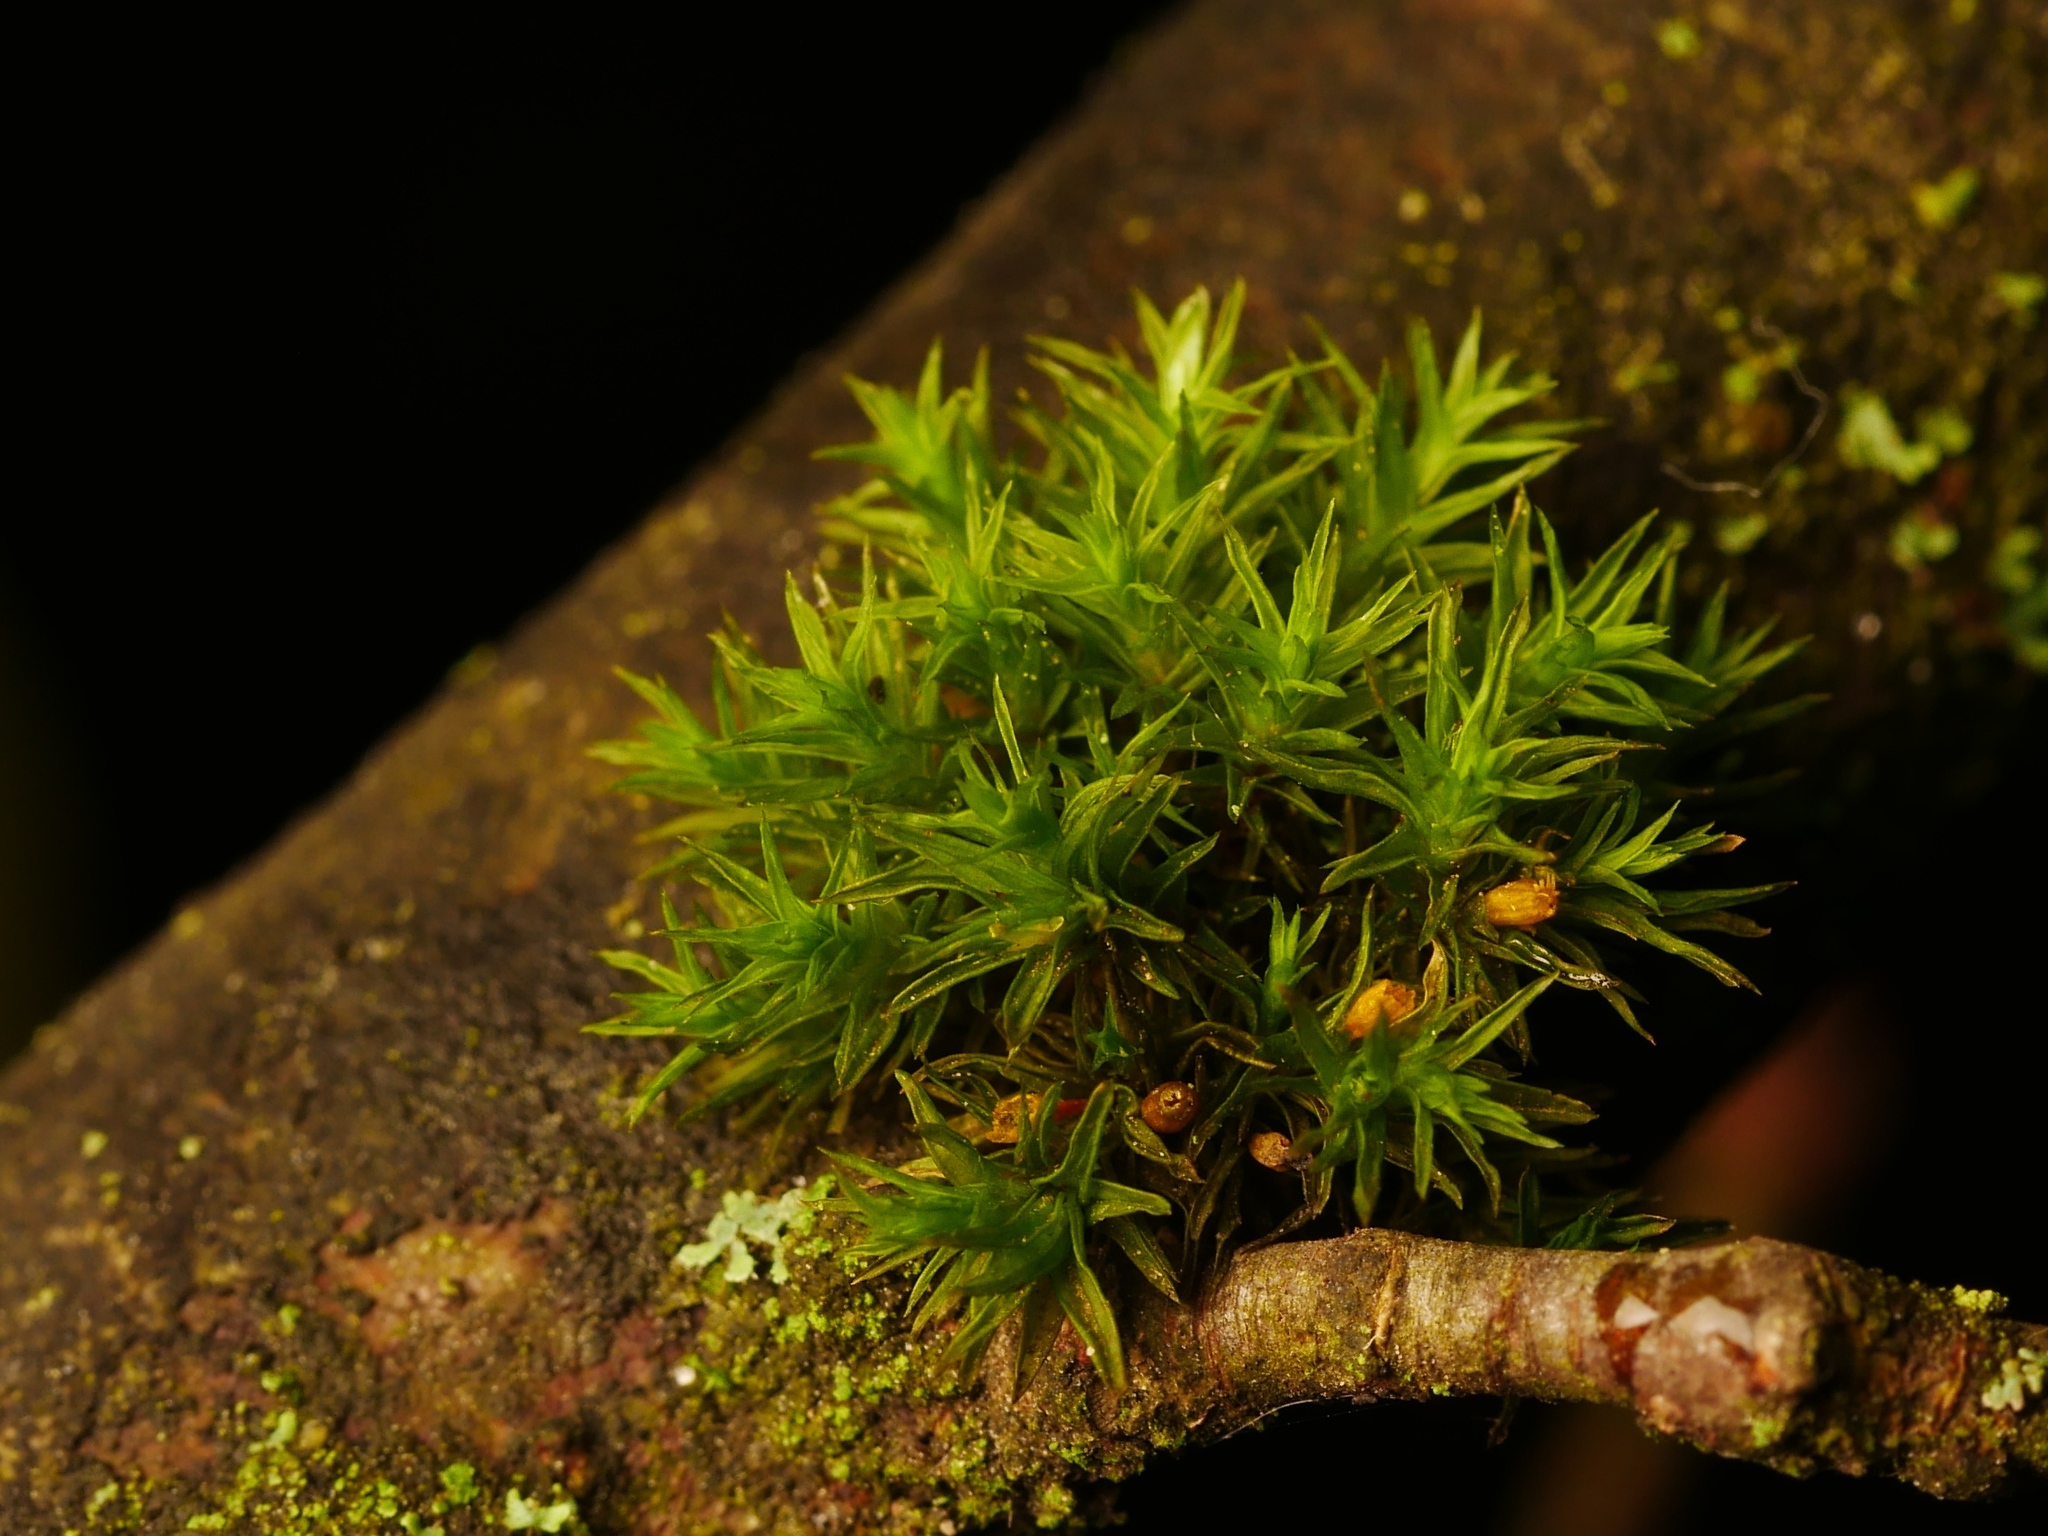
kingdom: Plantae
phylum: Bryophyta
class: Bryopsida
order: Orthotrichales
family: Orthotrichaceae
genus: Lewinskya
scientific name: Lewinskya affinis
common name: Wood bristle-moss
